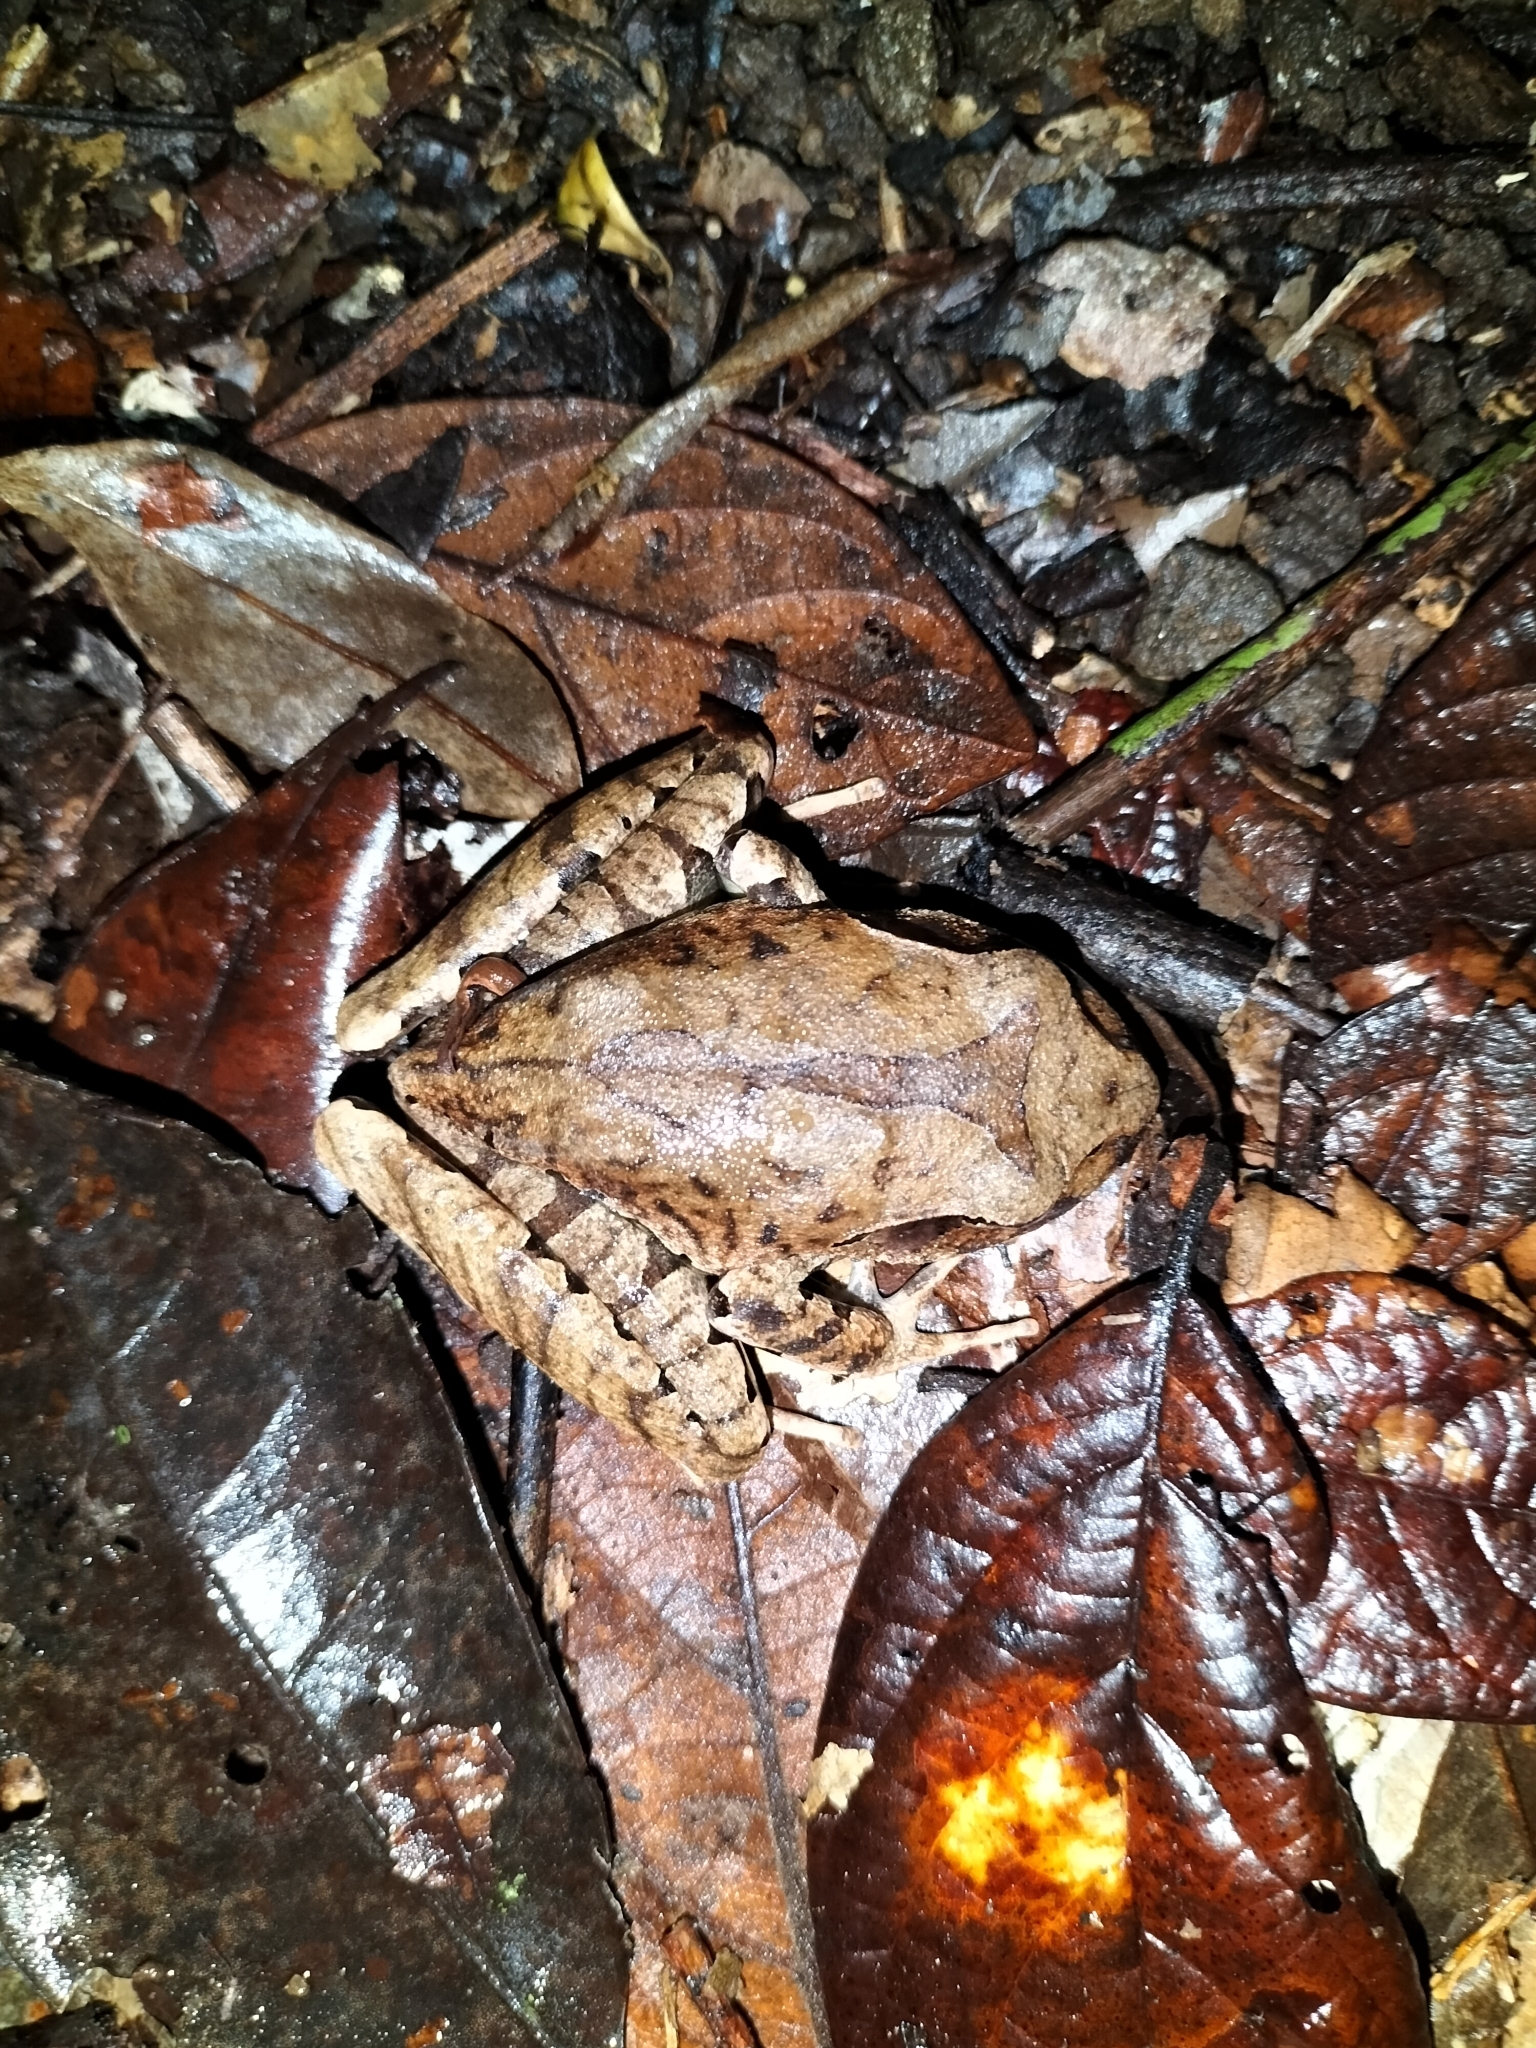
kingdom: Animalia
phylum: Chordata
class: Amphibia
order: Anura
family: Myobatrachidae
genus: Mixophyes
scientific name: Mixophyes coggeri
